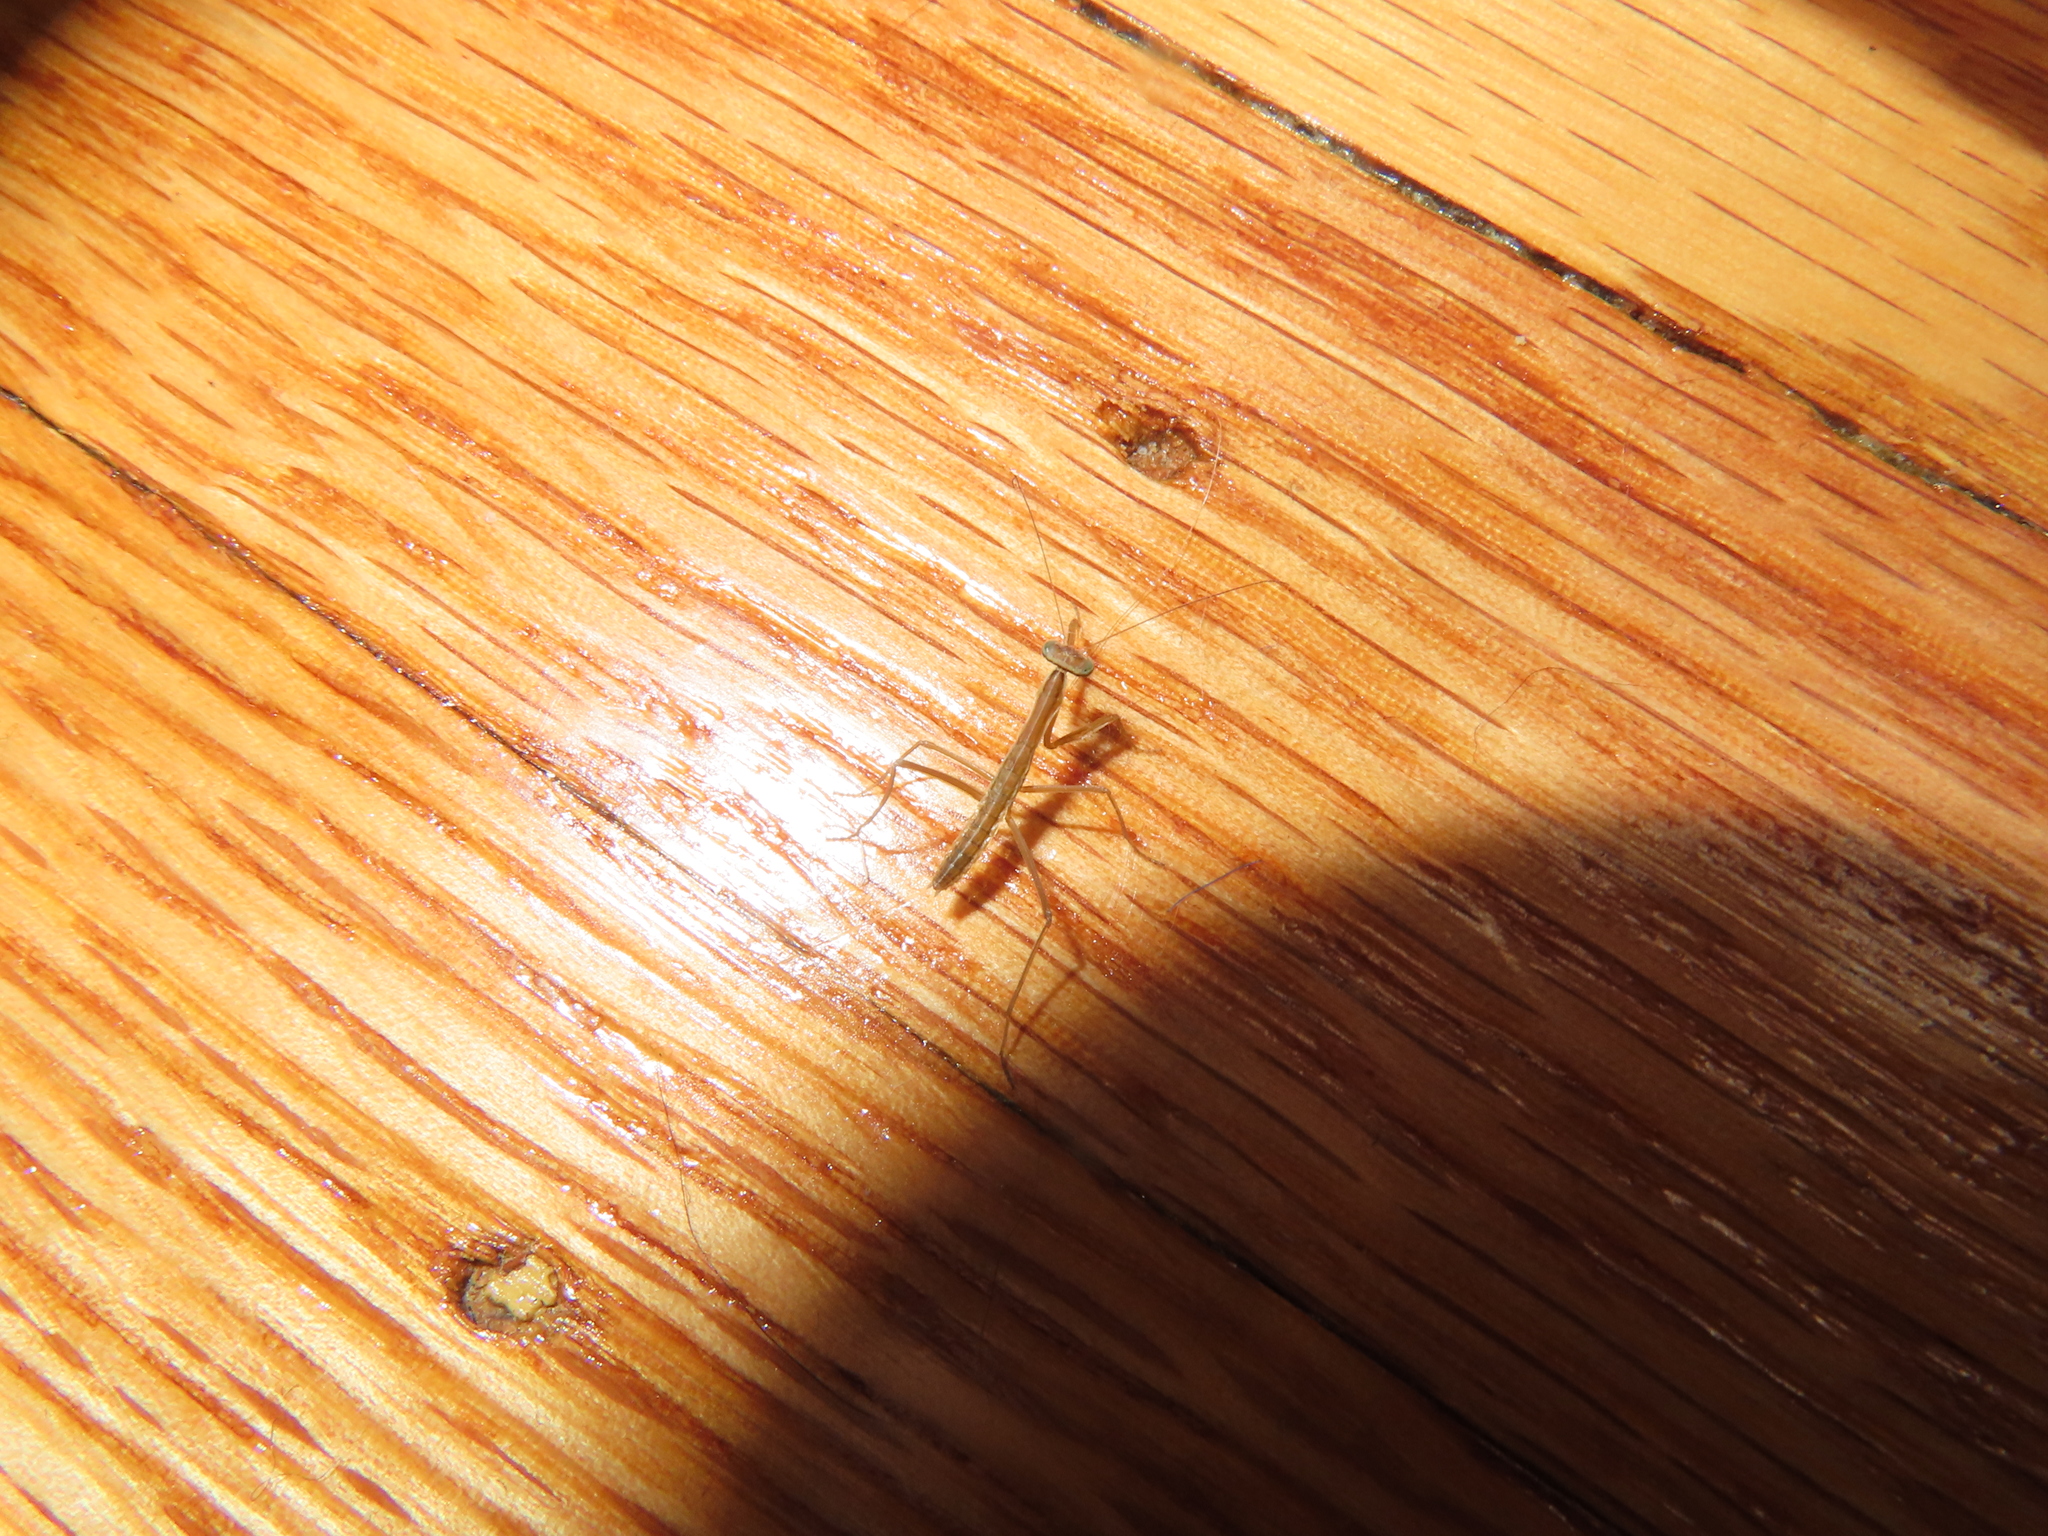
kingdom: Animalia
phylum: Arthropoda
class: Insecta
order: Mantodea
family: Mantidae
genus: Tenodera
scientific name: Tenodera sinensis
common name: Chinese mantis
